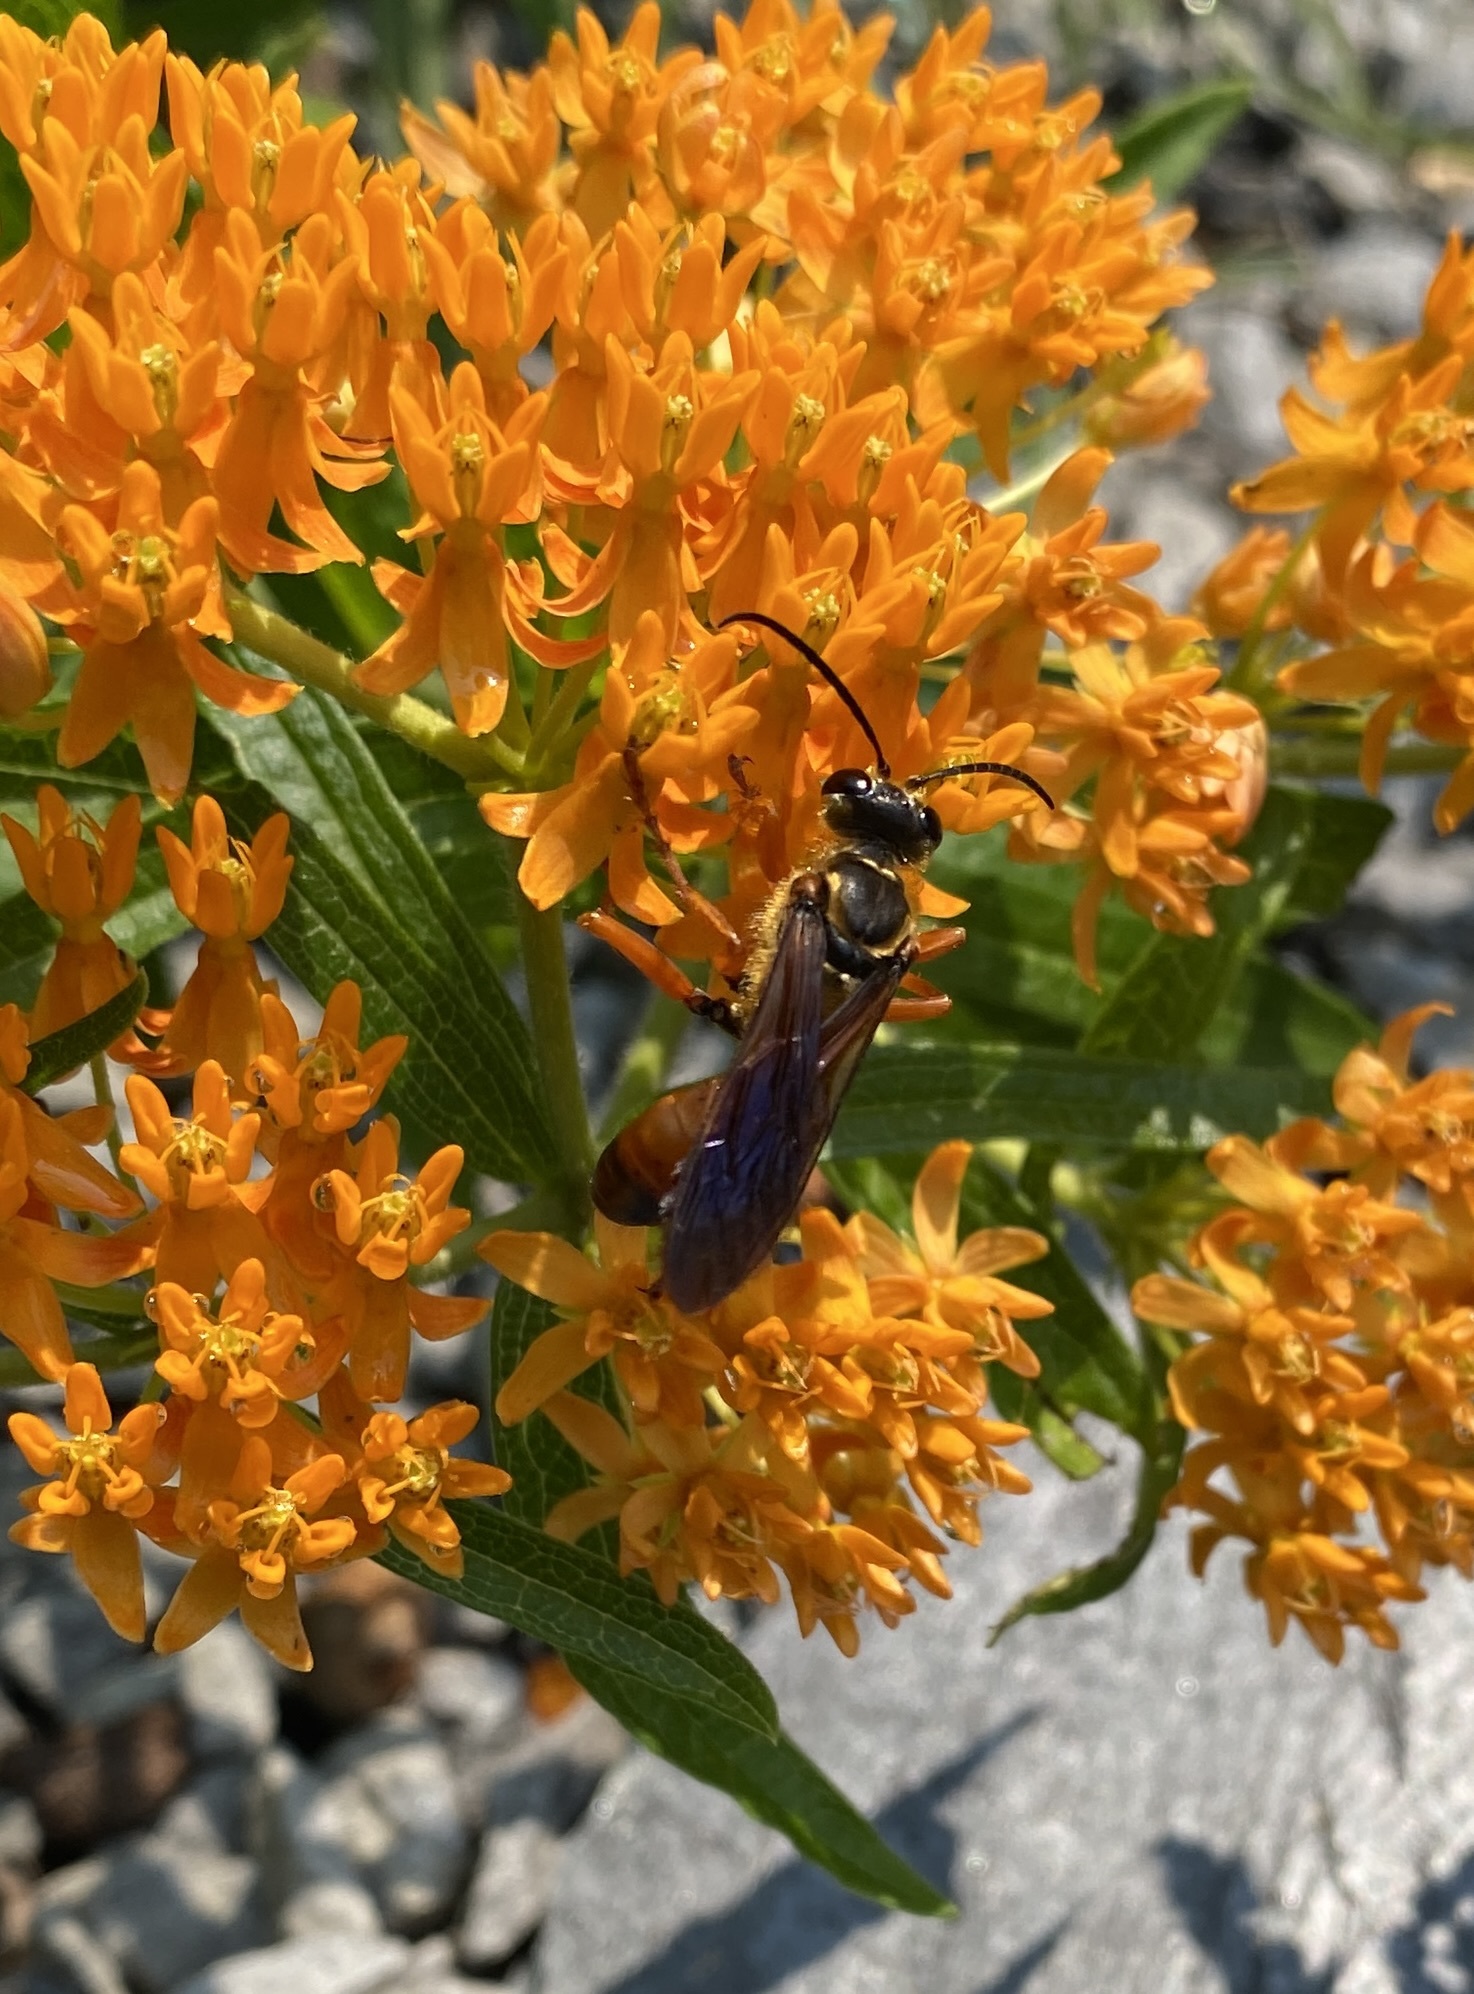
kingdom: Animalia
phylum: Arthropoda
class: Insecta
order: Hymenoptera
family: Sphecidae
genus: Sphex
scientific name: Sphex ichneumoneus
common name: Great golden digger wasp
